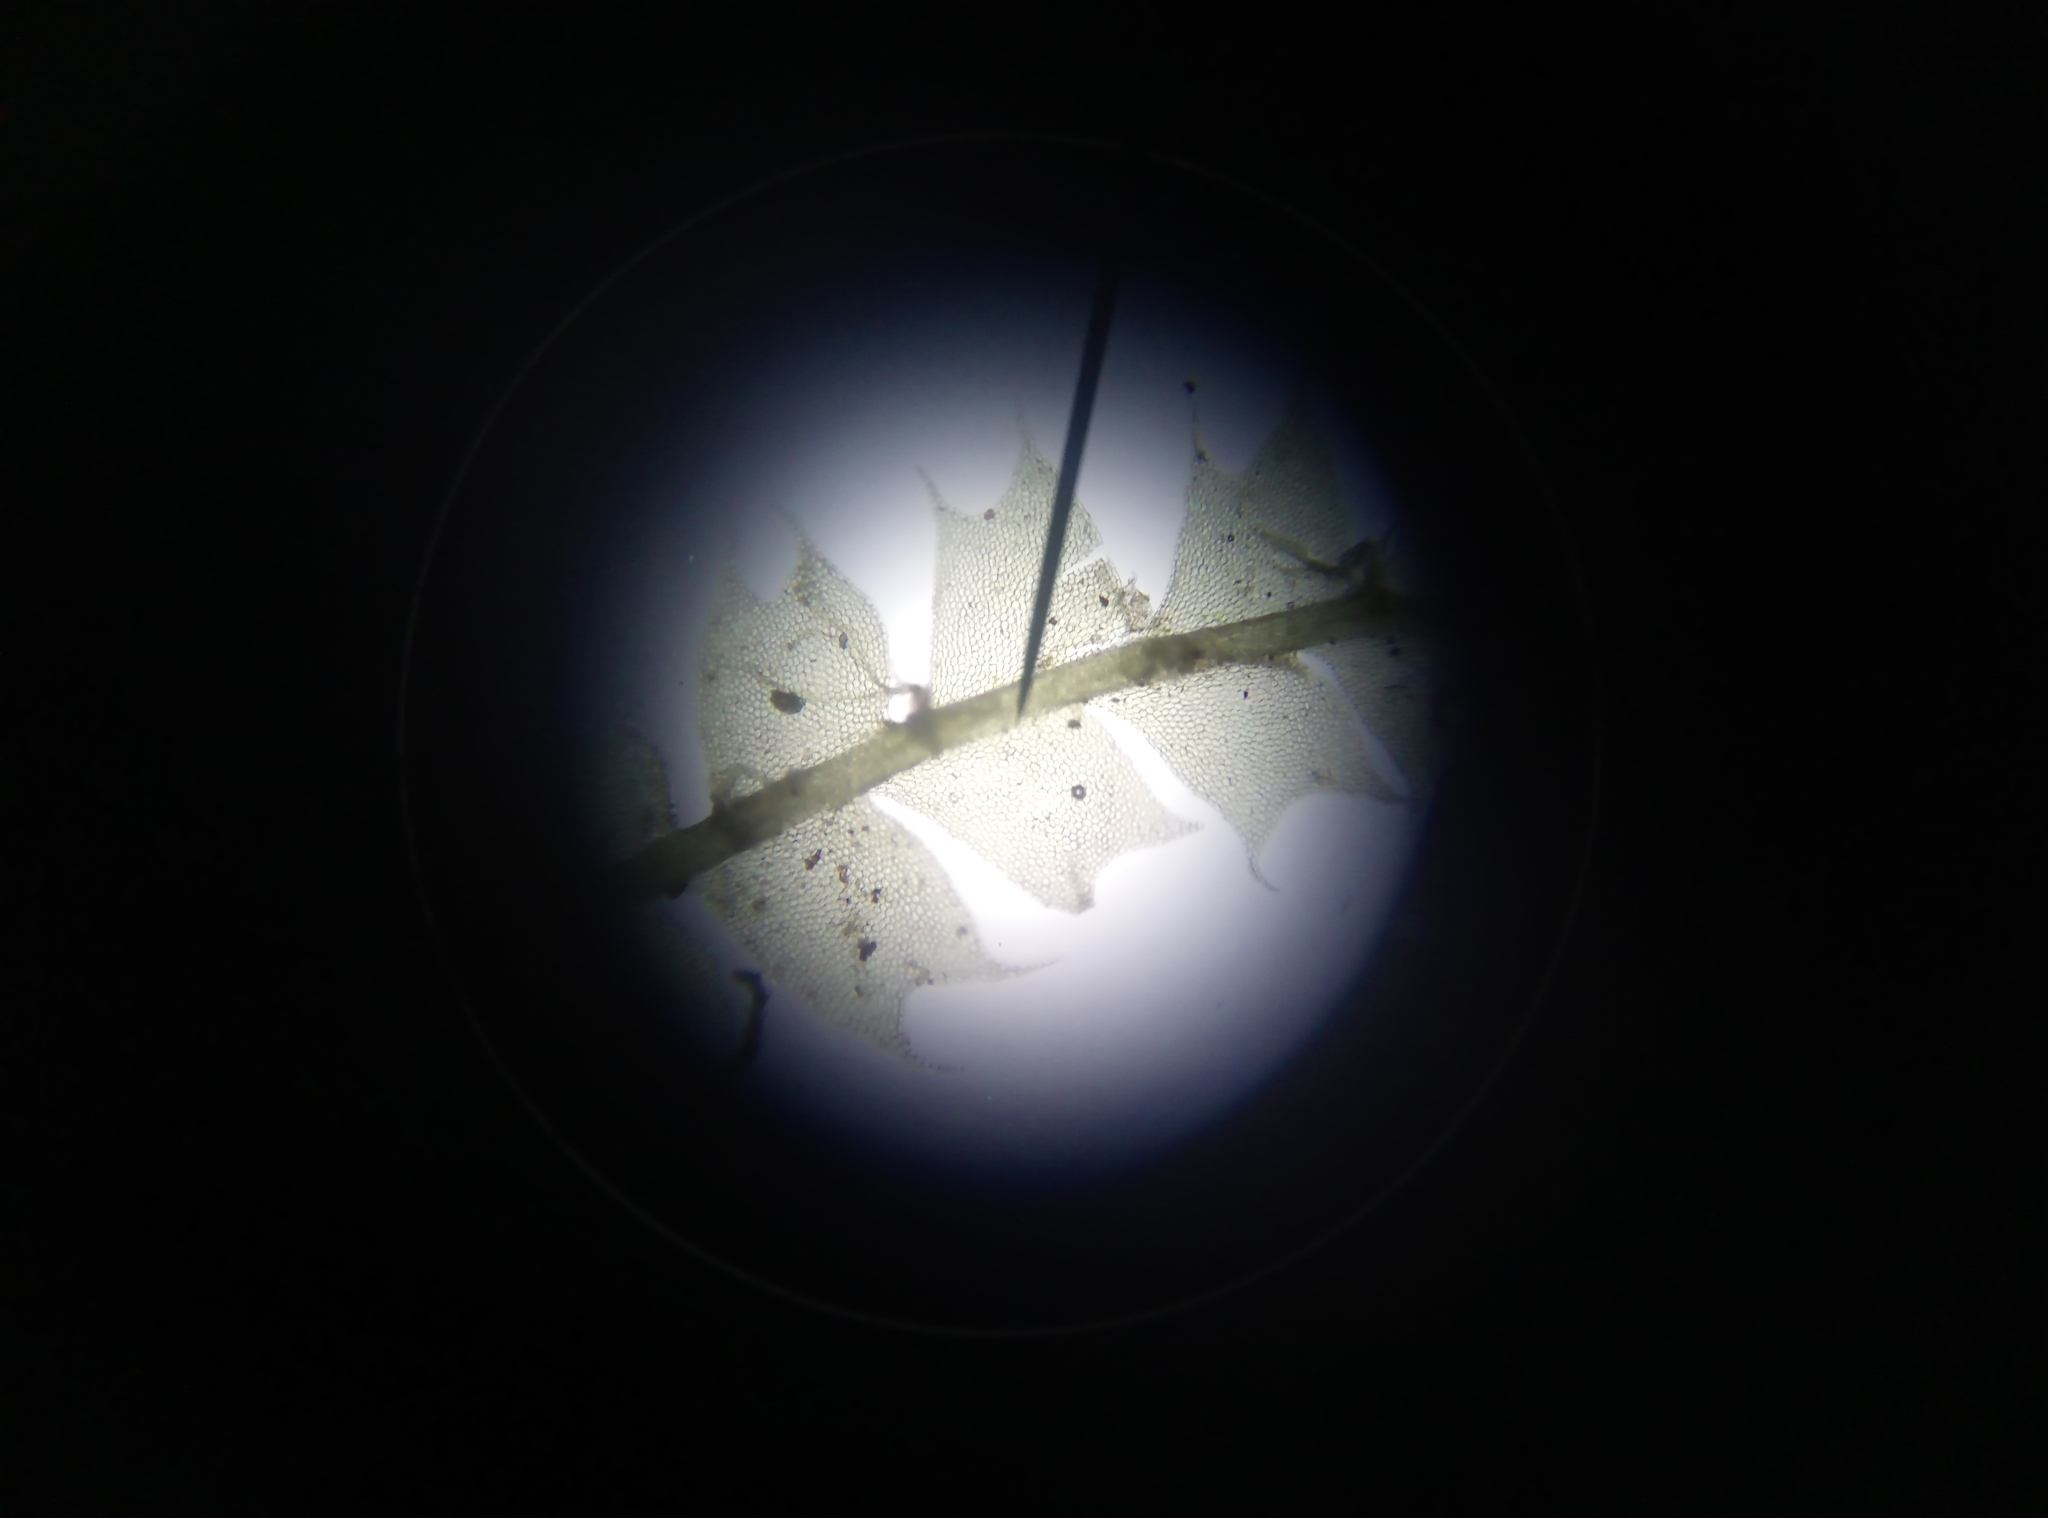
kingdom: Plantae
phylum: Marchantiophyta
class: Jungermanniopsida
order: Jungermanniales
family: Lophocoleaceae
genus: Lophocolea
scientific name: Lophocolea bidentata
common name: Bifid crestwort
